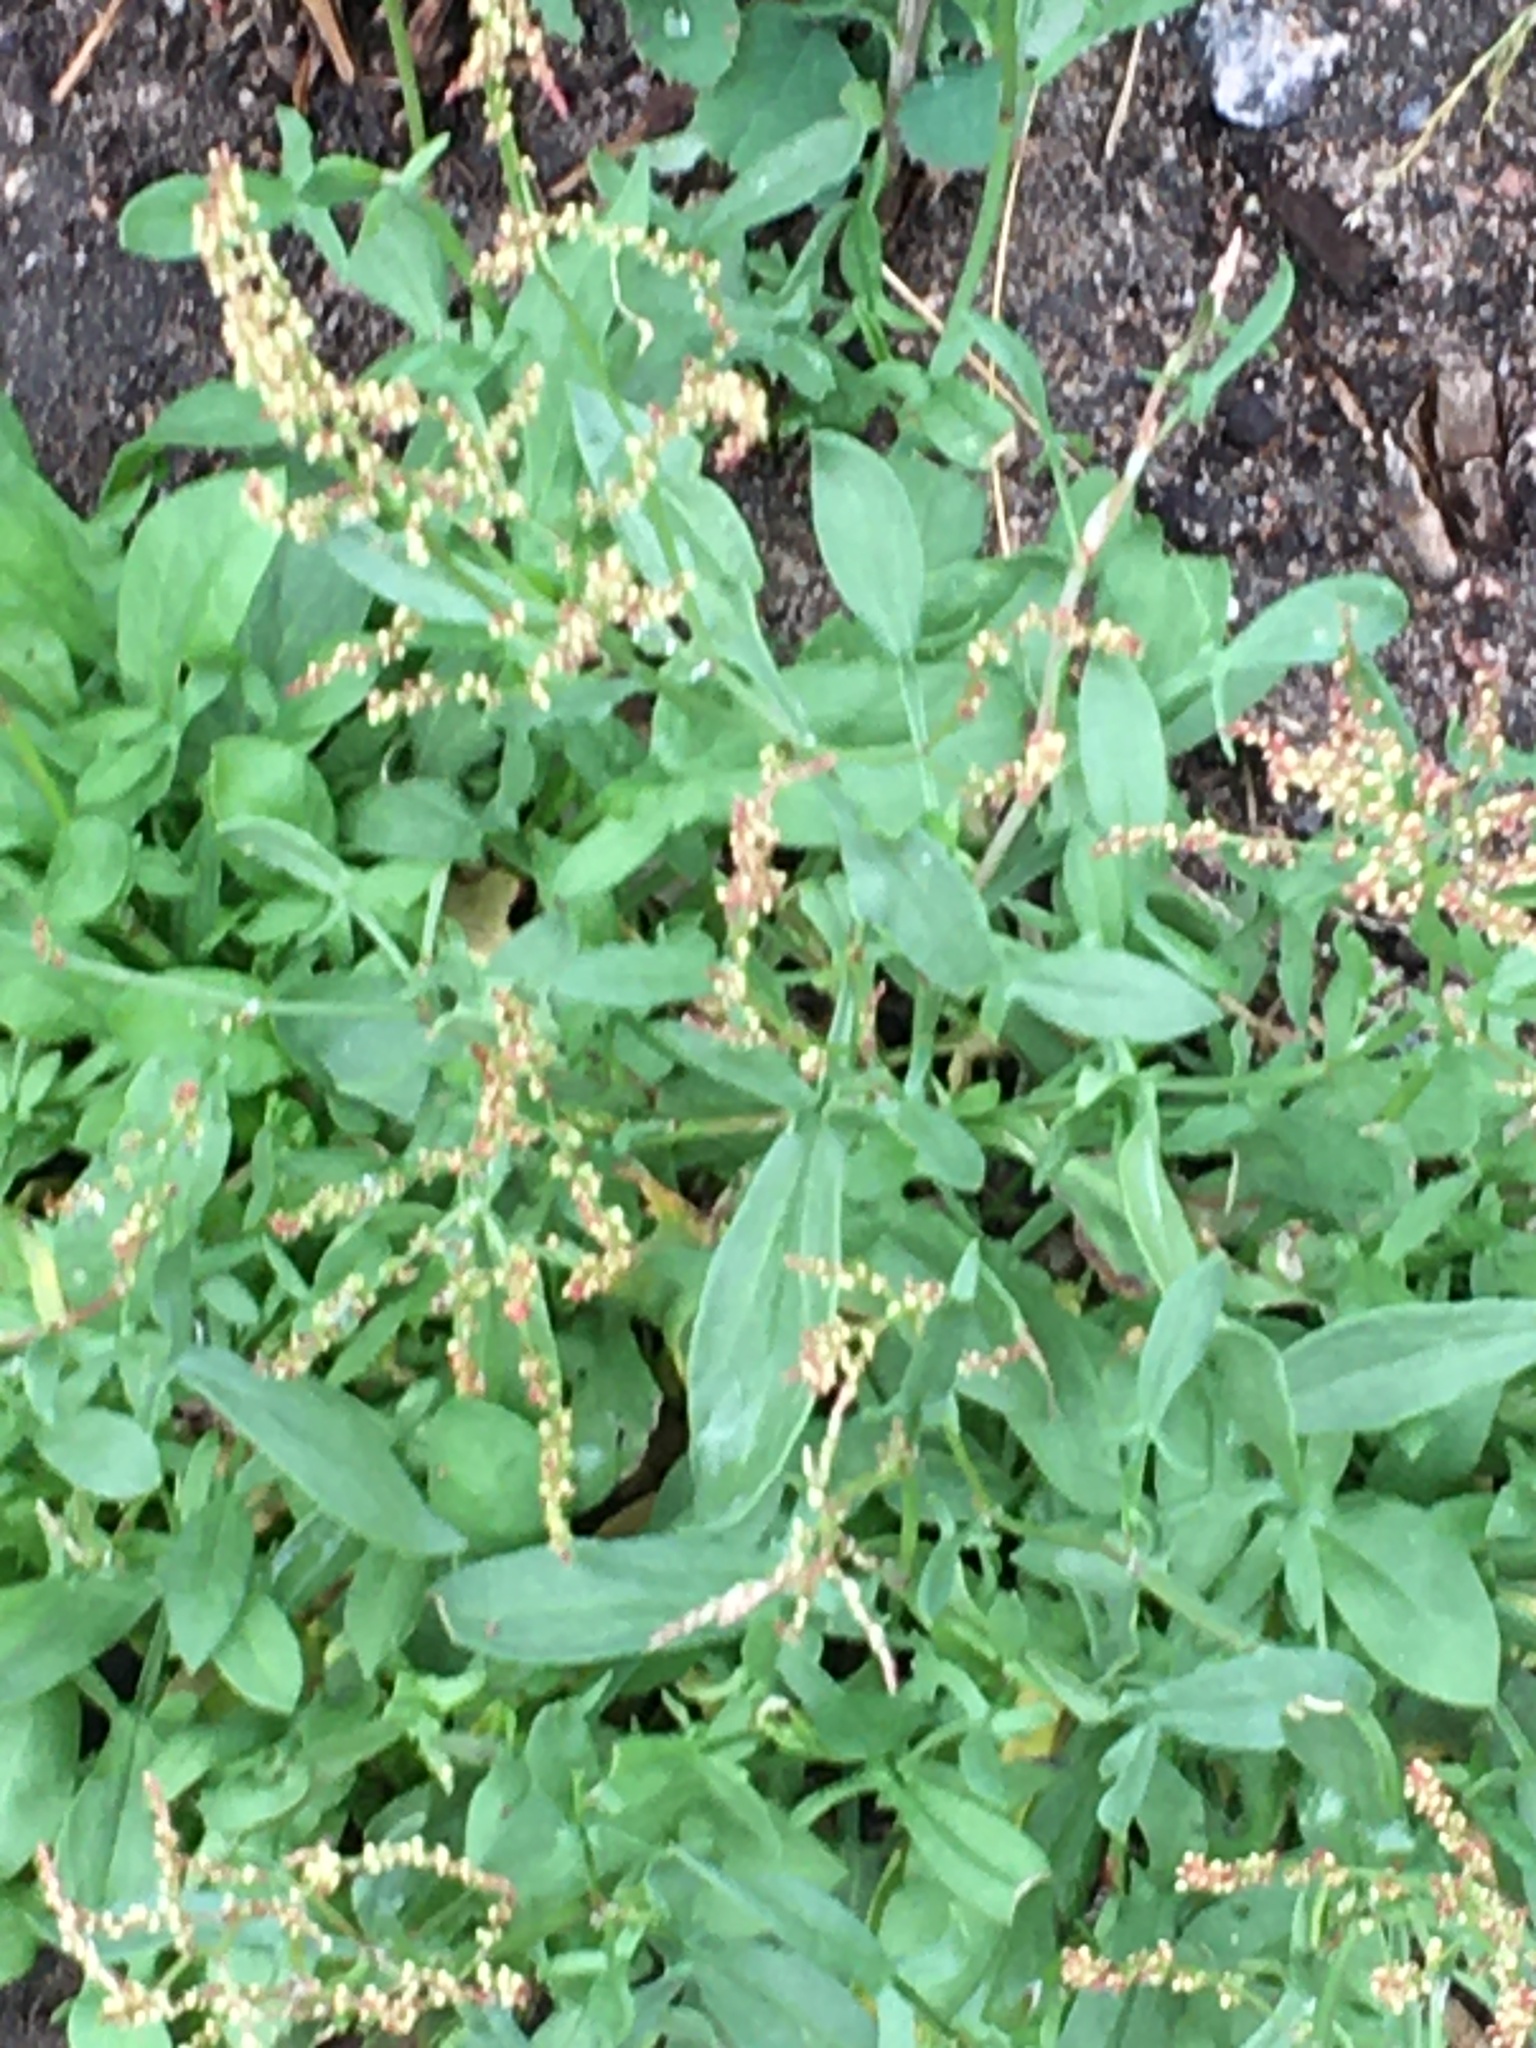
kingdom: Plantae
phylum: Tracheophyta
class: Magnoliopsida
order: Caryophyllales
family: Polygonaceae
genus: Rumex
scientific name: Rumex acetosella
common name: Common sheep sorrel
